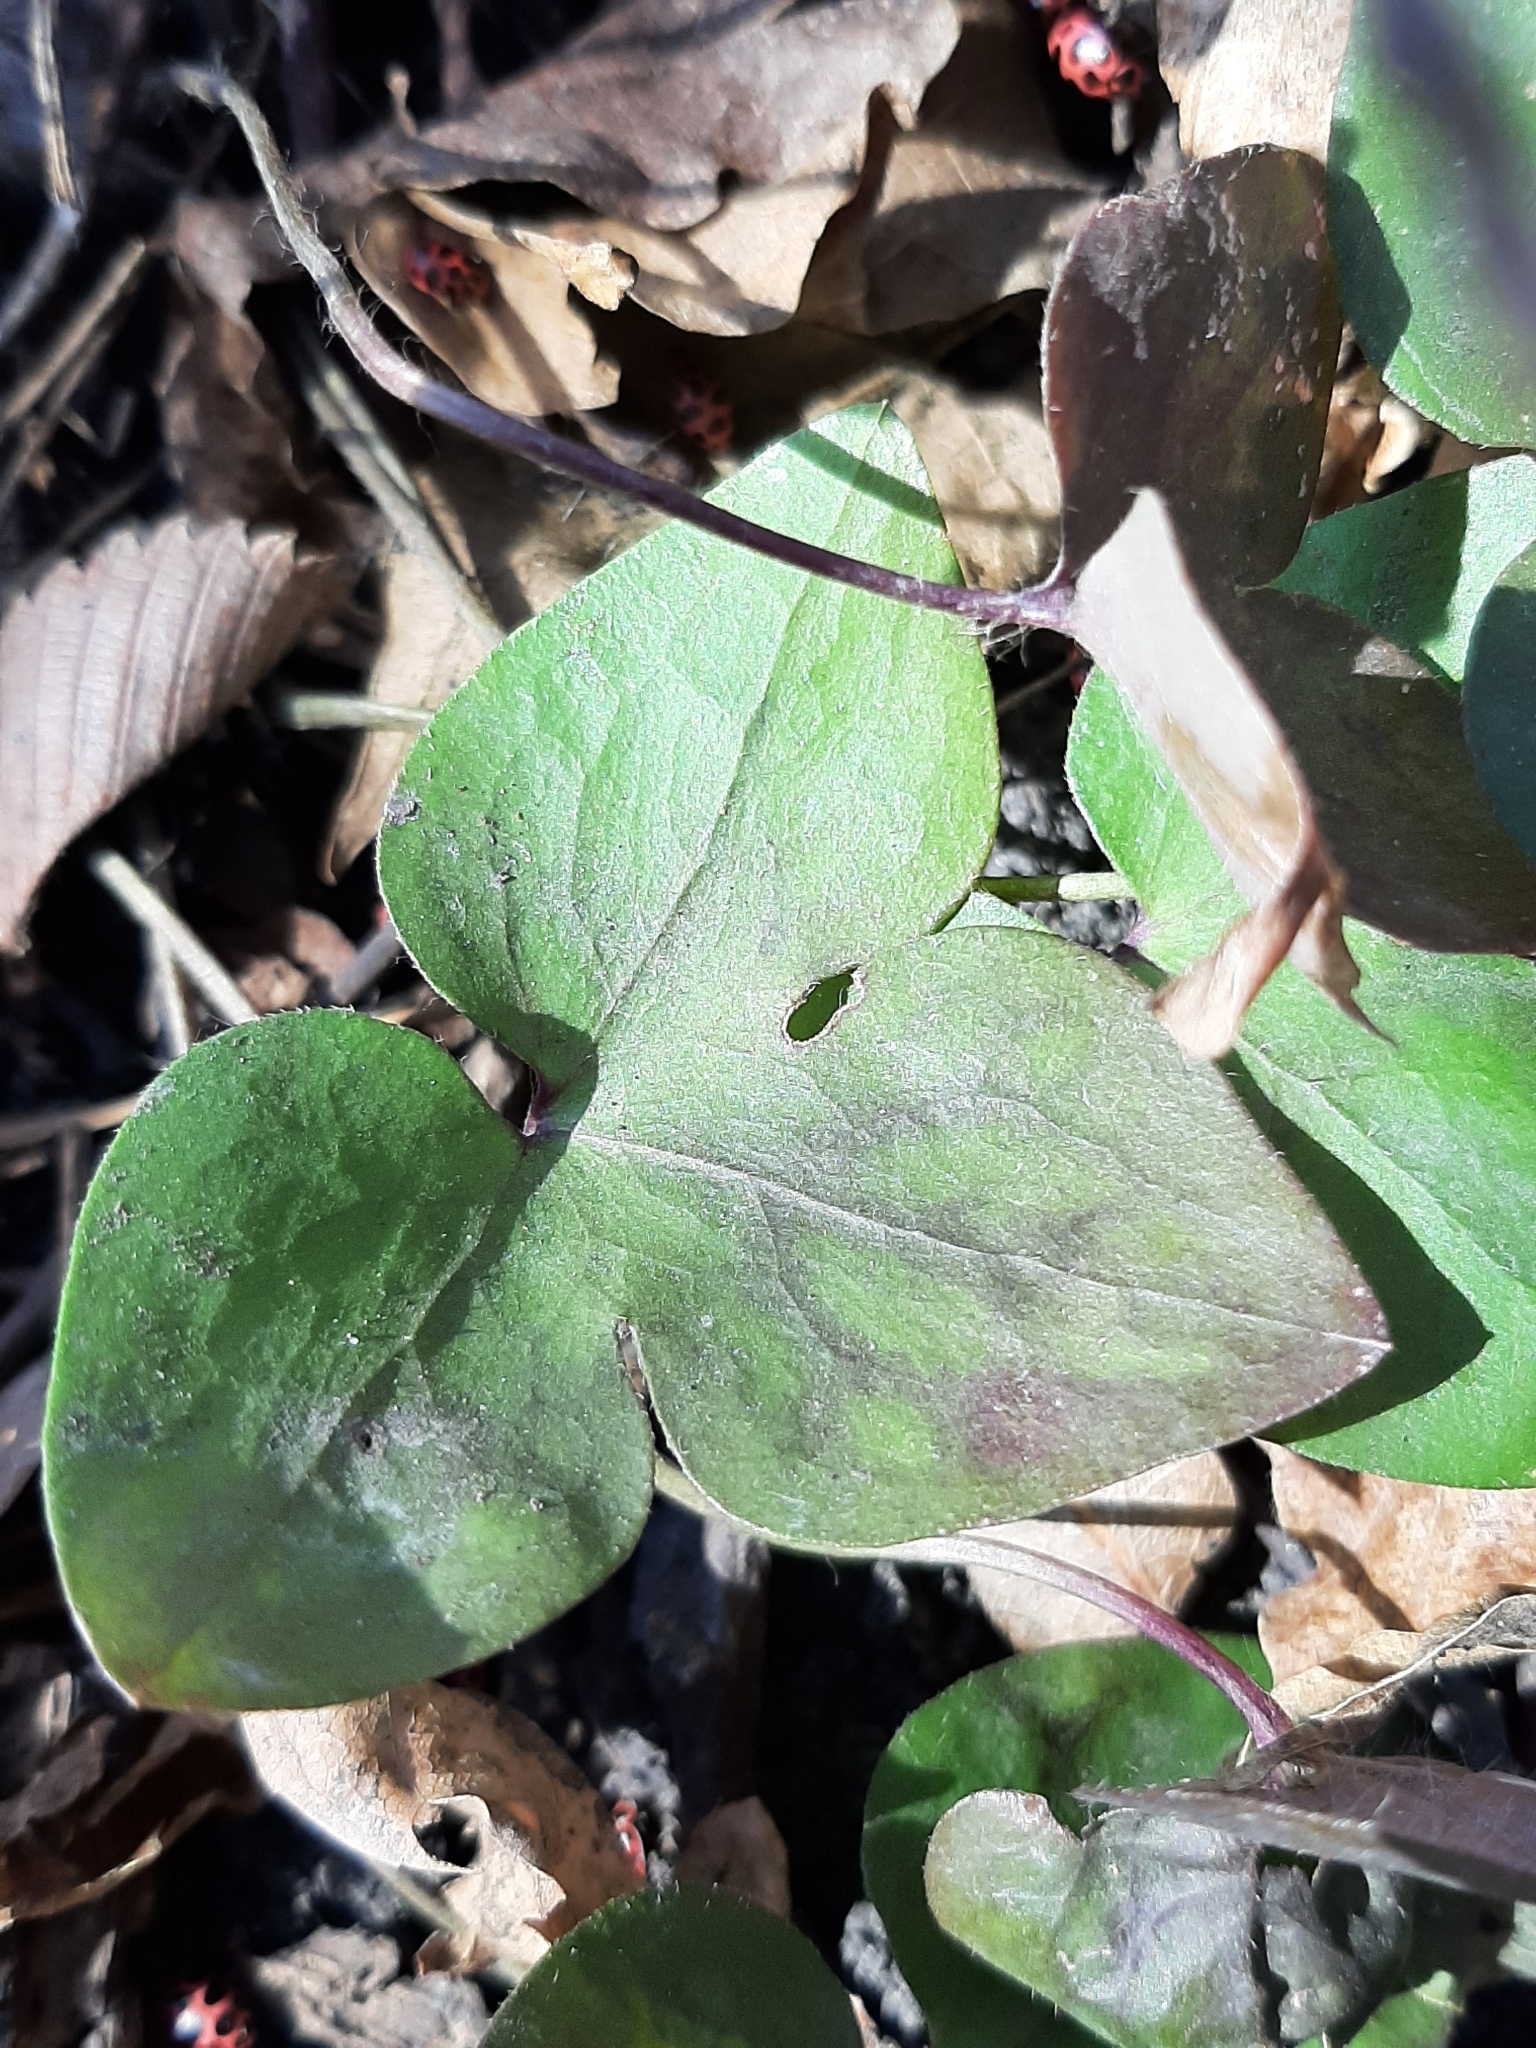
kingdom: Plantae
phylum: Tracheophyta
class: Magnoliopsida
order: Ranunculales
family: Ranunculaceae
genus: Hepatica
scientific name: Hepatica acutiloba
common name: Sharp-lobed hepatica
